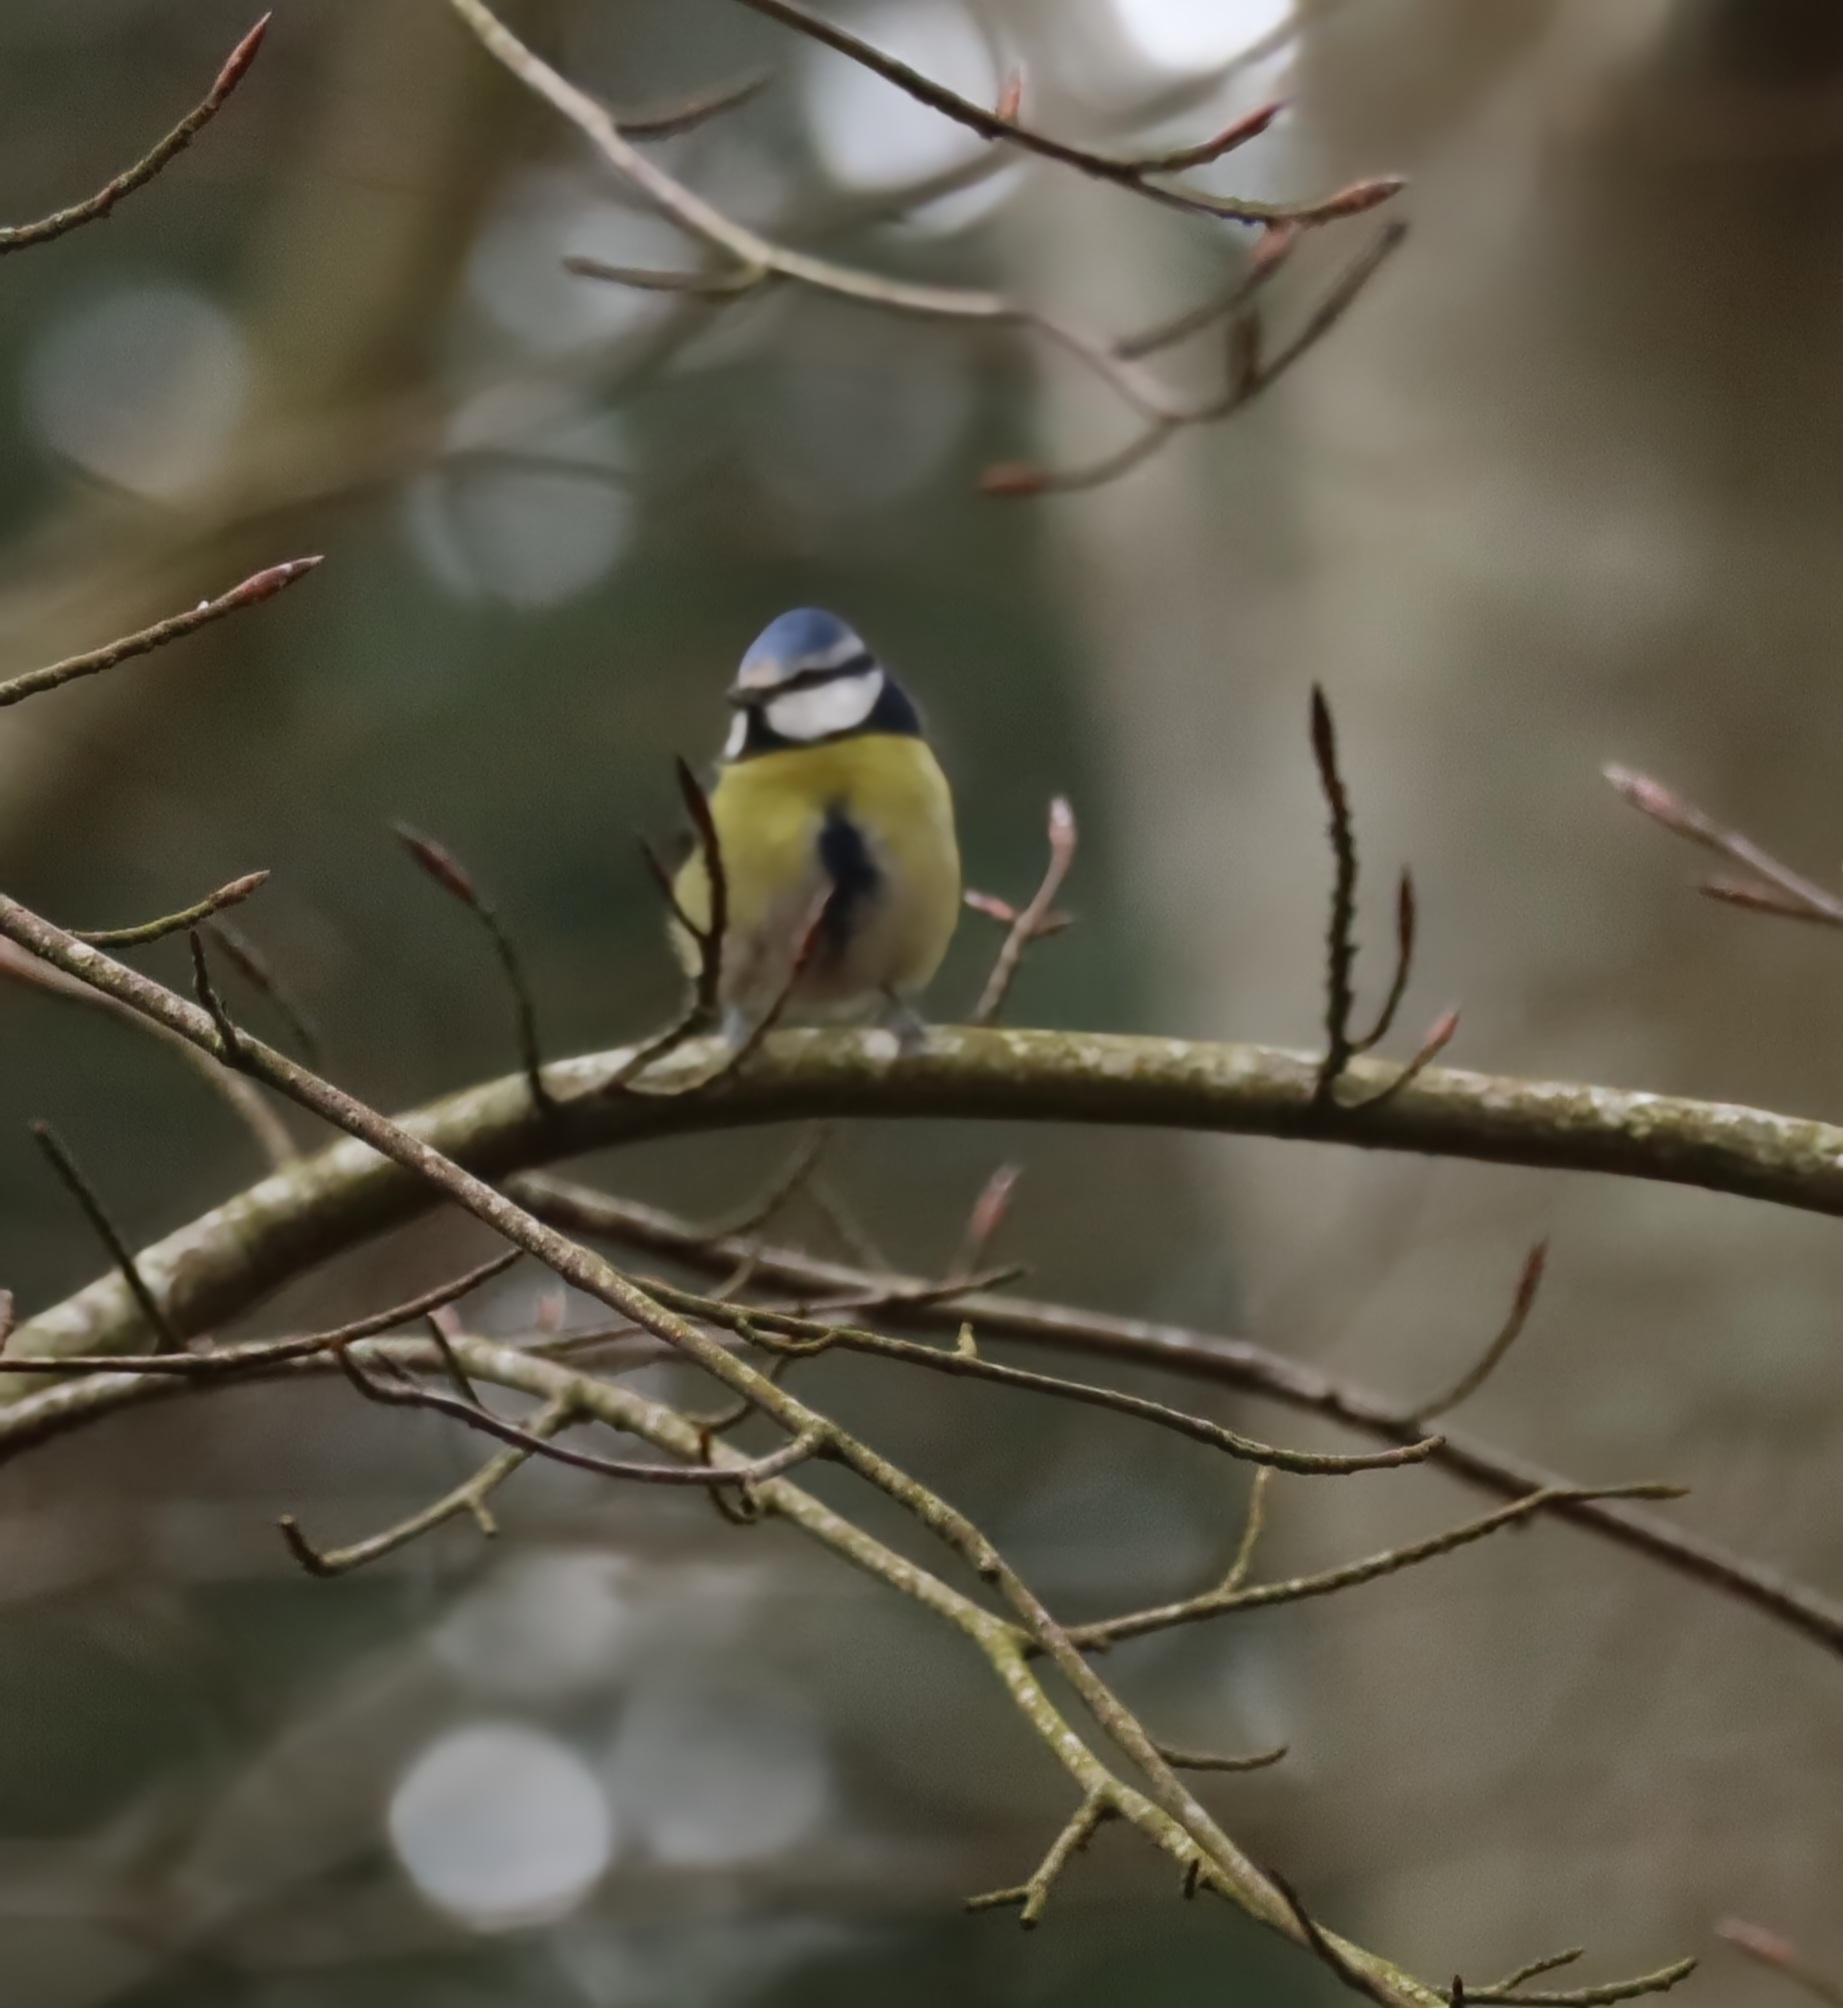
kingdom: Animalia
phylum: Chordata
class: Aves
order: Passeriformes
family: Paridae
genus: Cyanistes
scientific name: Cyanistes caeruleus
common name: Eurasian blue tit
